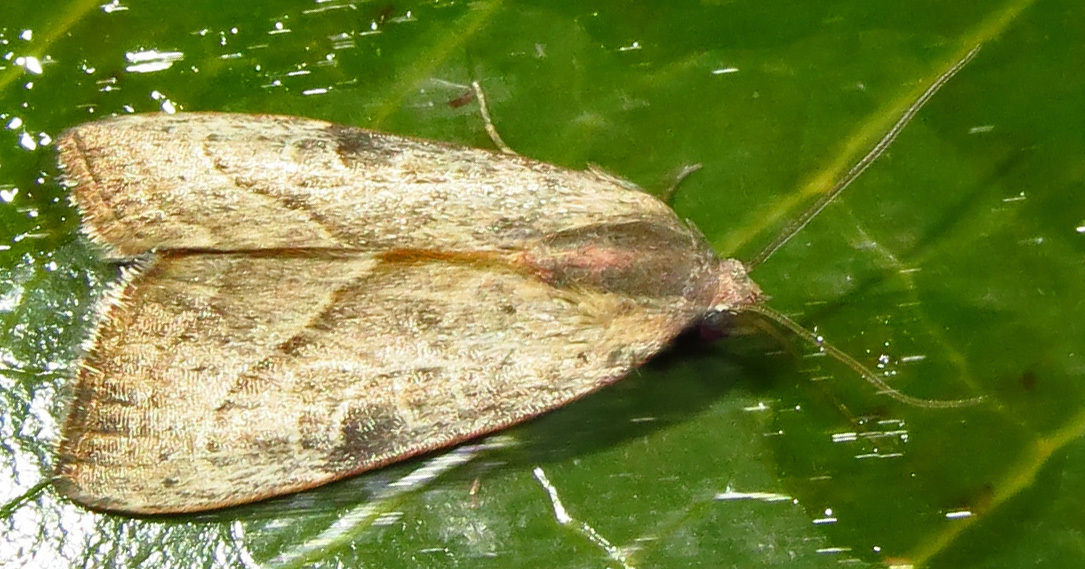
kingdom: Animalia
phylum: Arthropoda
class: Insecta
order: Lepidoptera
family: Noctuidae
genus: Galgula
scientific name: Galgula partita
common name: Wedgeling
